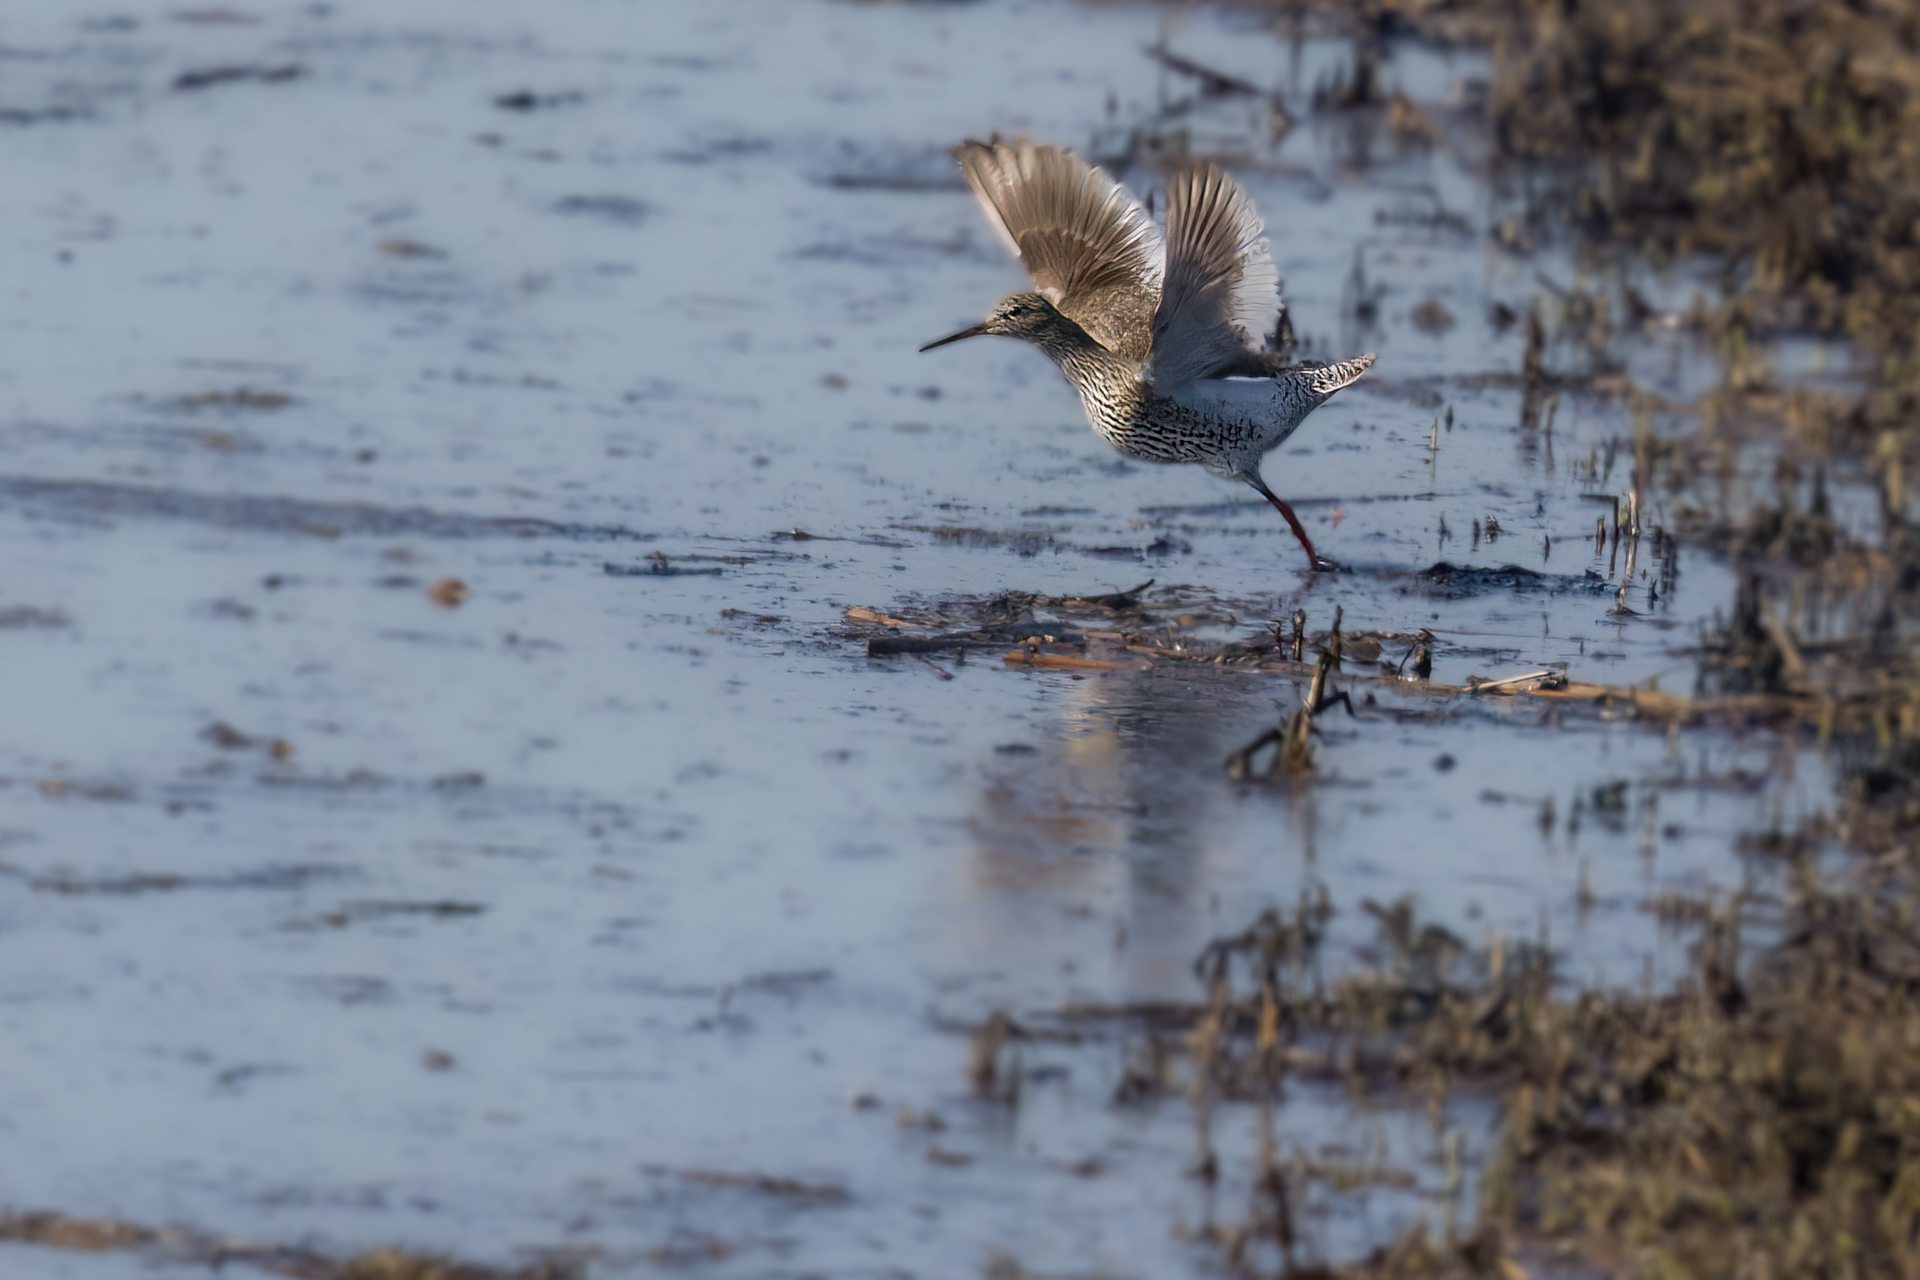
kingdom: Animalia
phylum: Chordata
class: Aves
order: Charadriiformes
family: Scolopacidae
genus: Tringa
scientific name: Tringa totanus
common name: Common redshank
